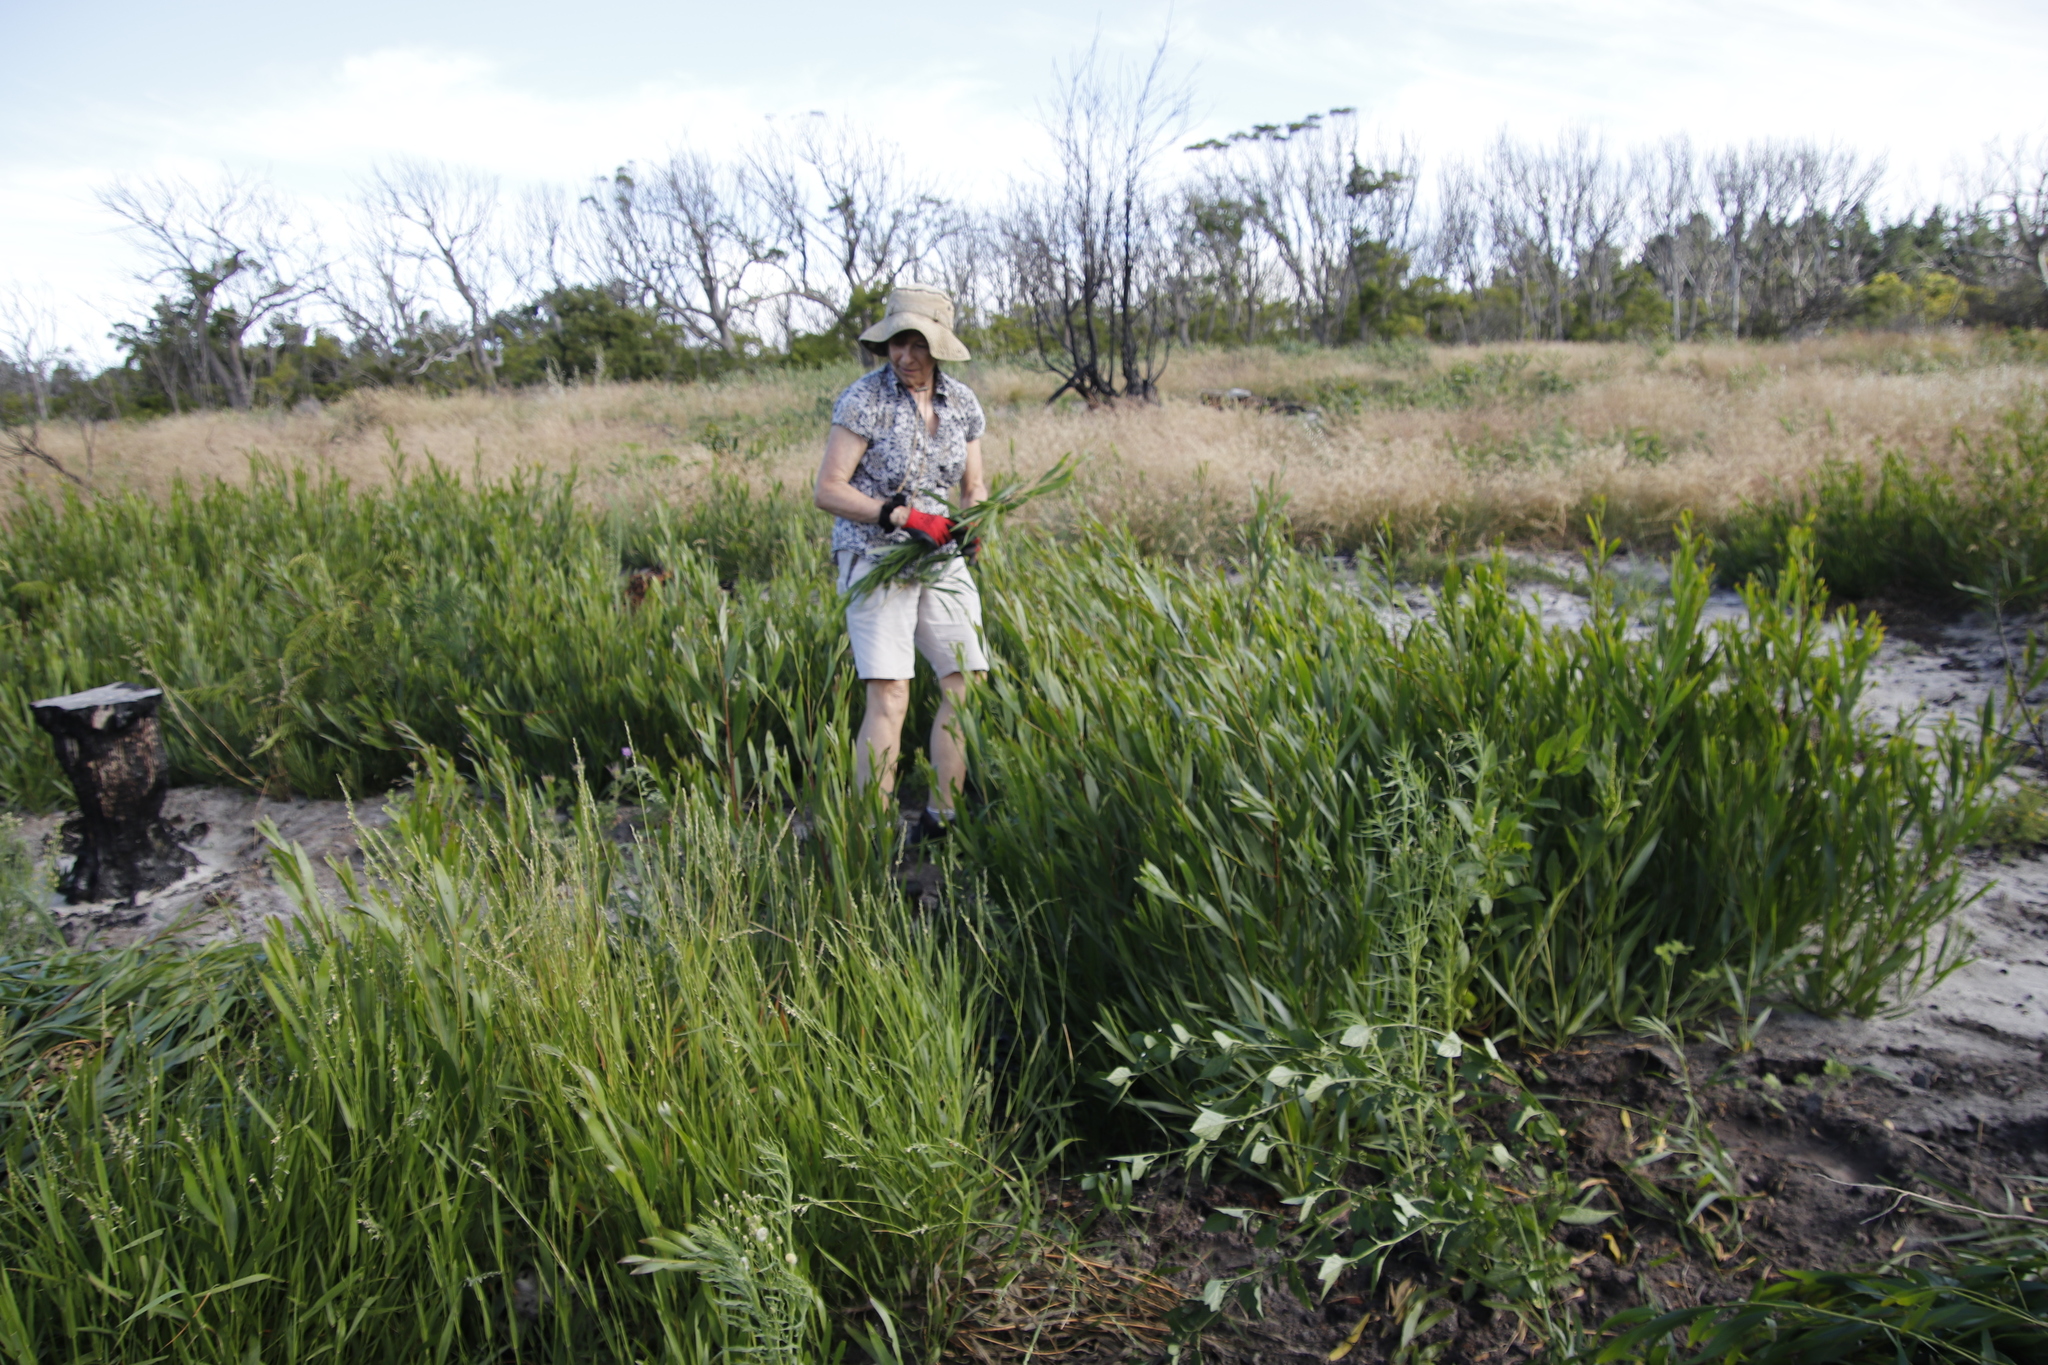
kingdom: Plantae
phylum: Tracheophyta
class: Magnoliopsida
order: Fabales
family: Fabaceae
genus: Acacia
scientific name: Acacia longifolia
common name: Sydney golden wattle
